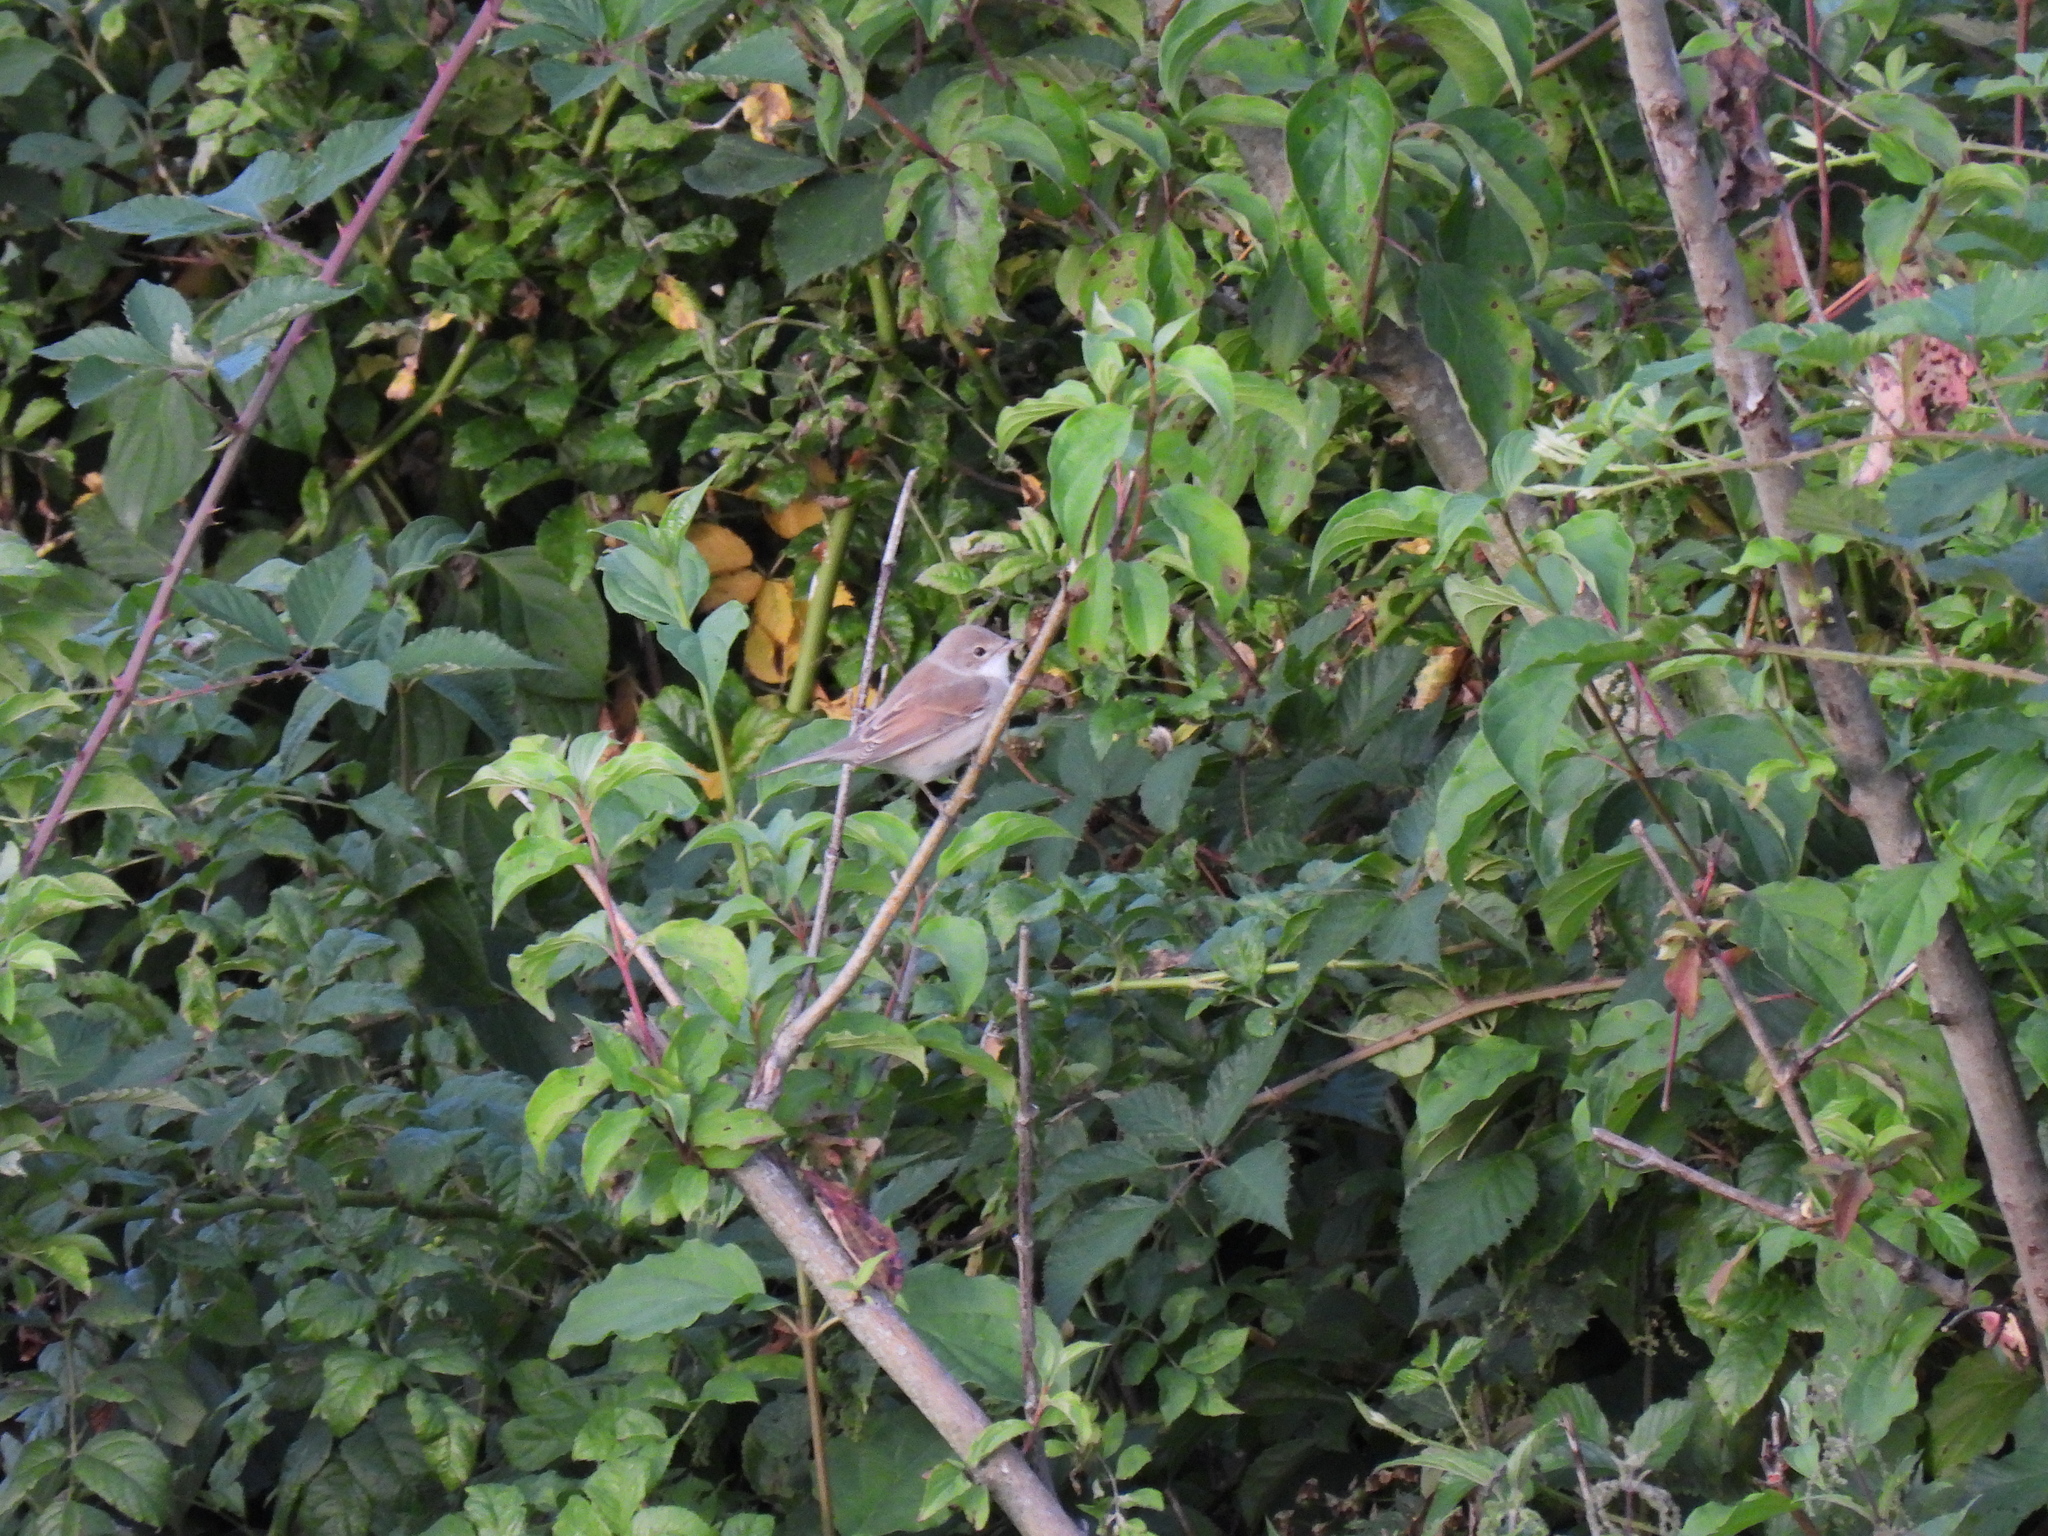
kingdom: Animalia
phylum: Chordata
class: Aves
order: Passeriformes
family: Sylviidae
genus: Sylvia
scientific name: Sylvia communis
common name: Common whitethroat
